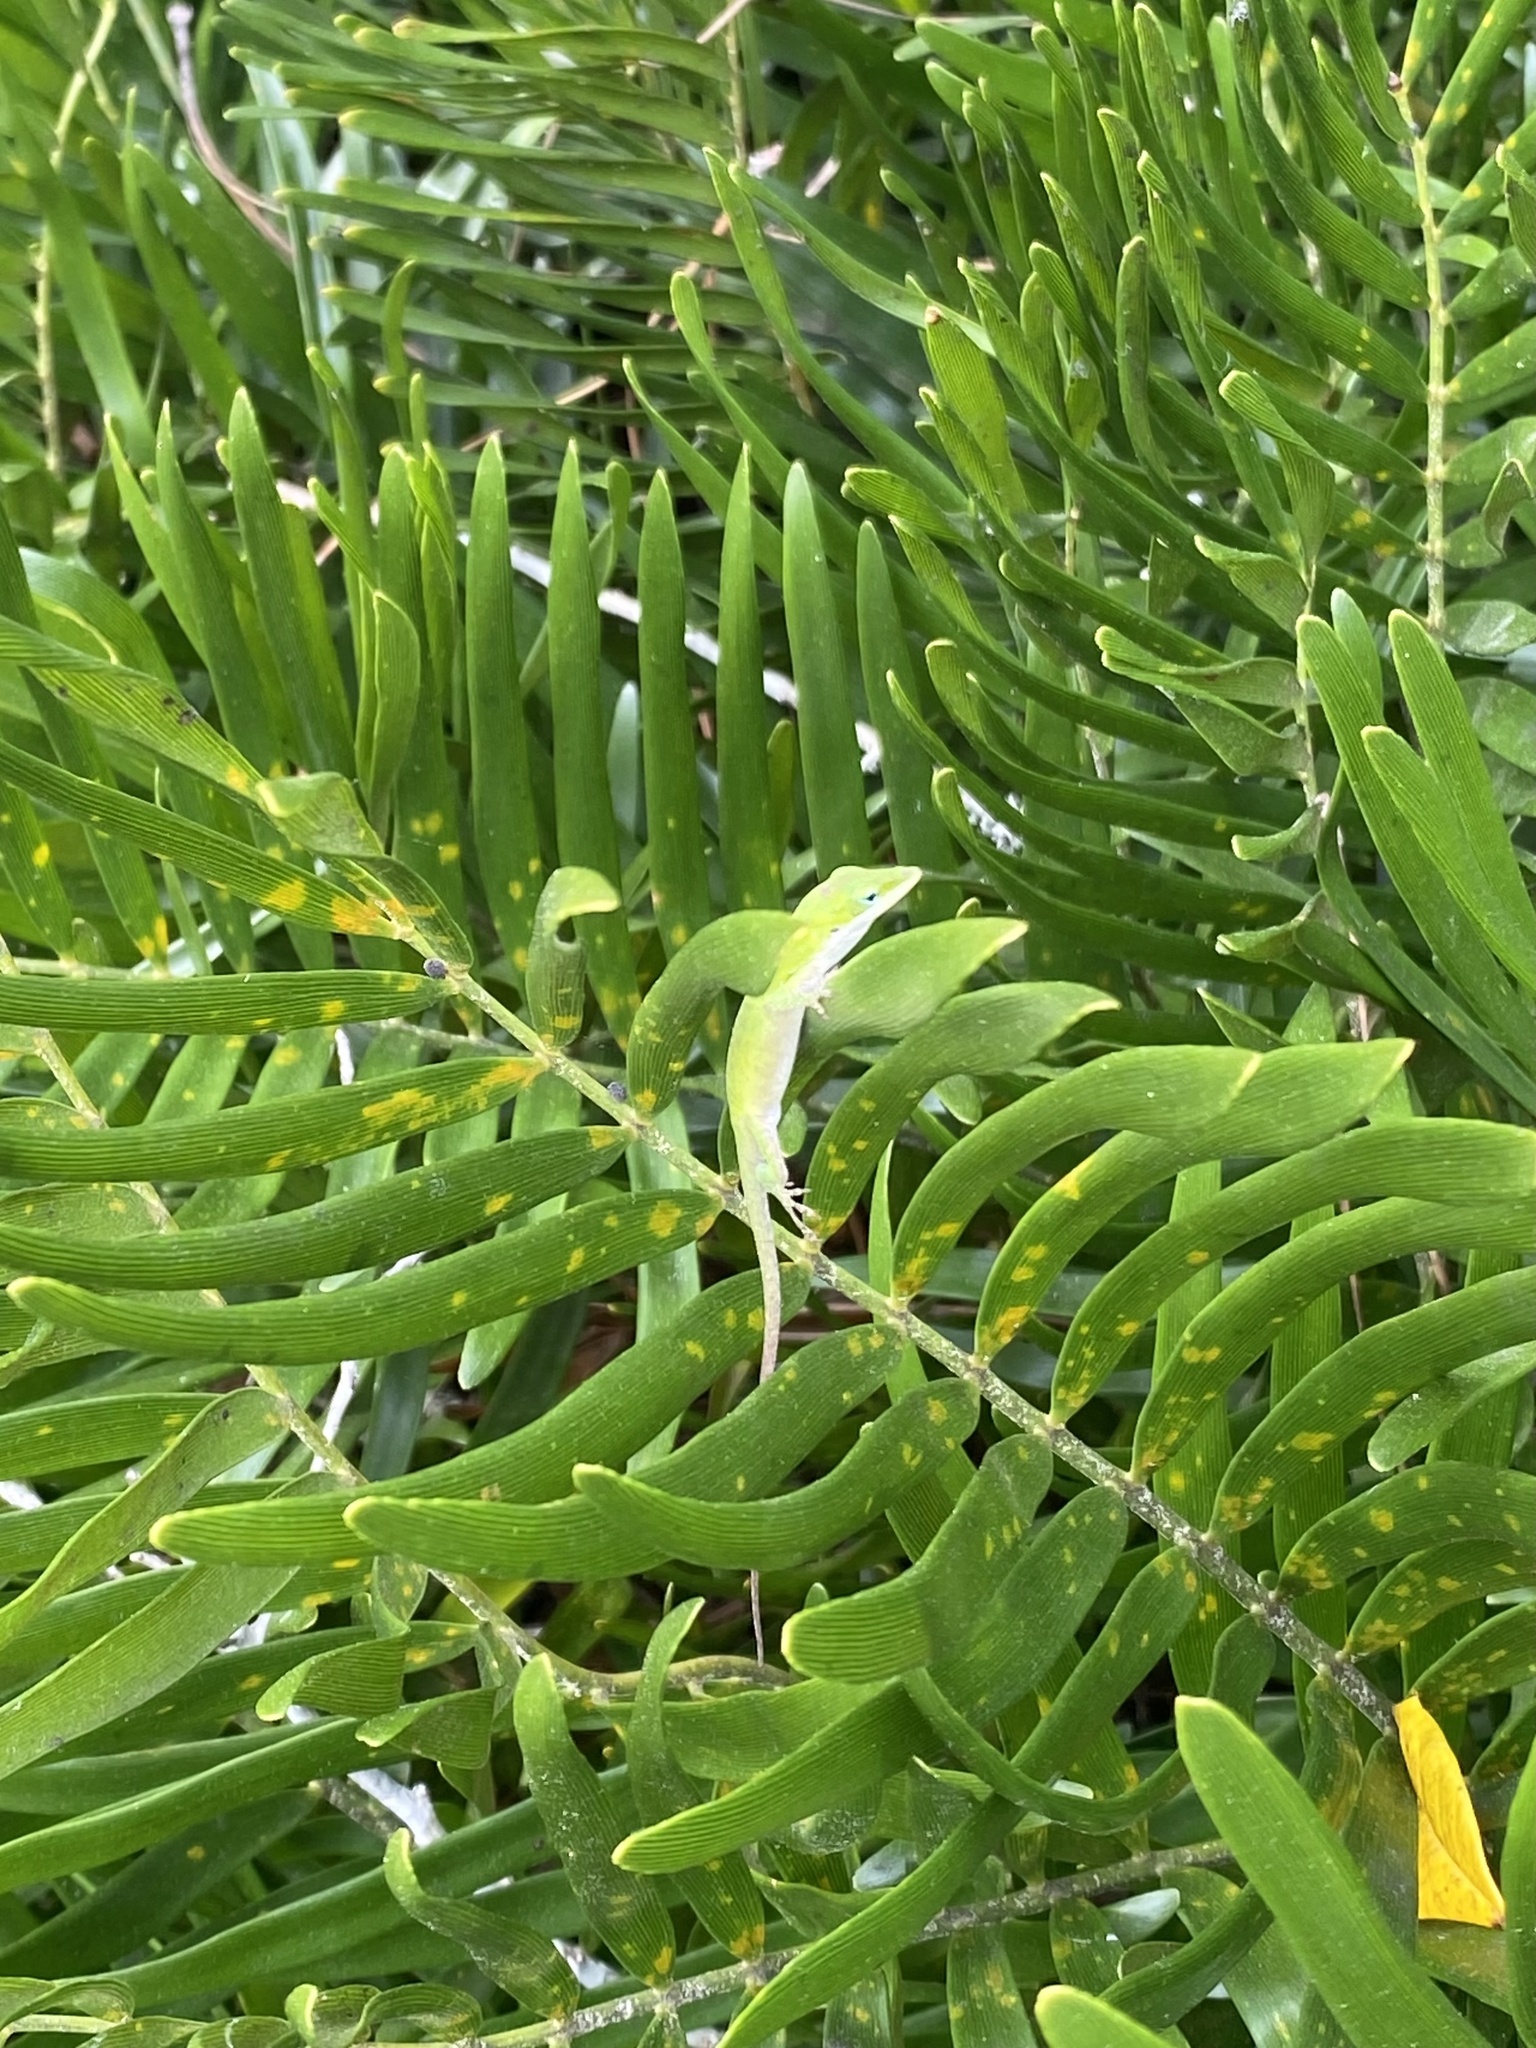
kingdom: Animalia
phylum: Chordata
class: Squamata
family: Dactyloidae
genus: Anolis
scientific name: Anolis carolinensis
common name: Green anole
